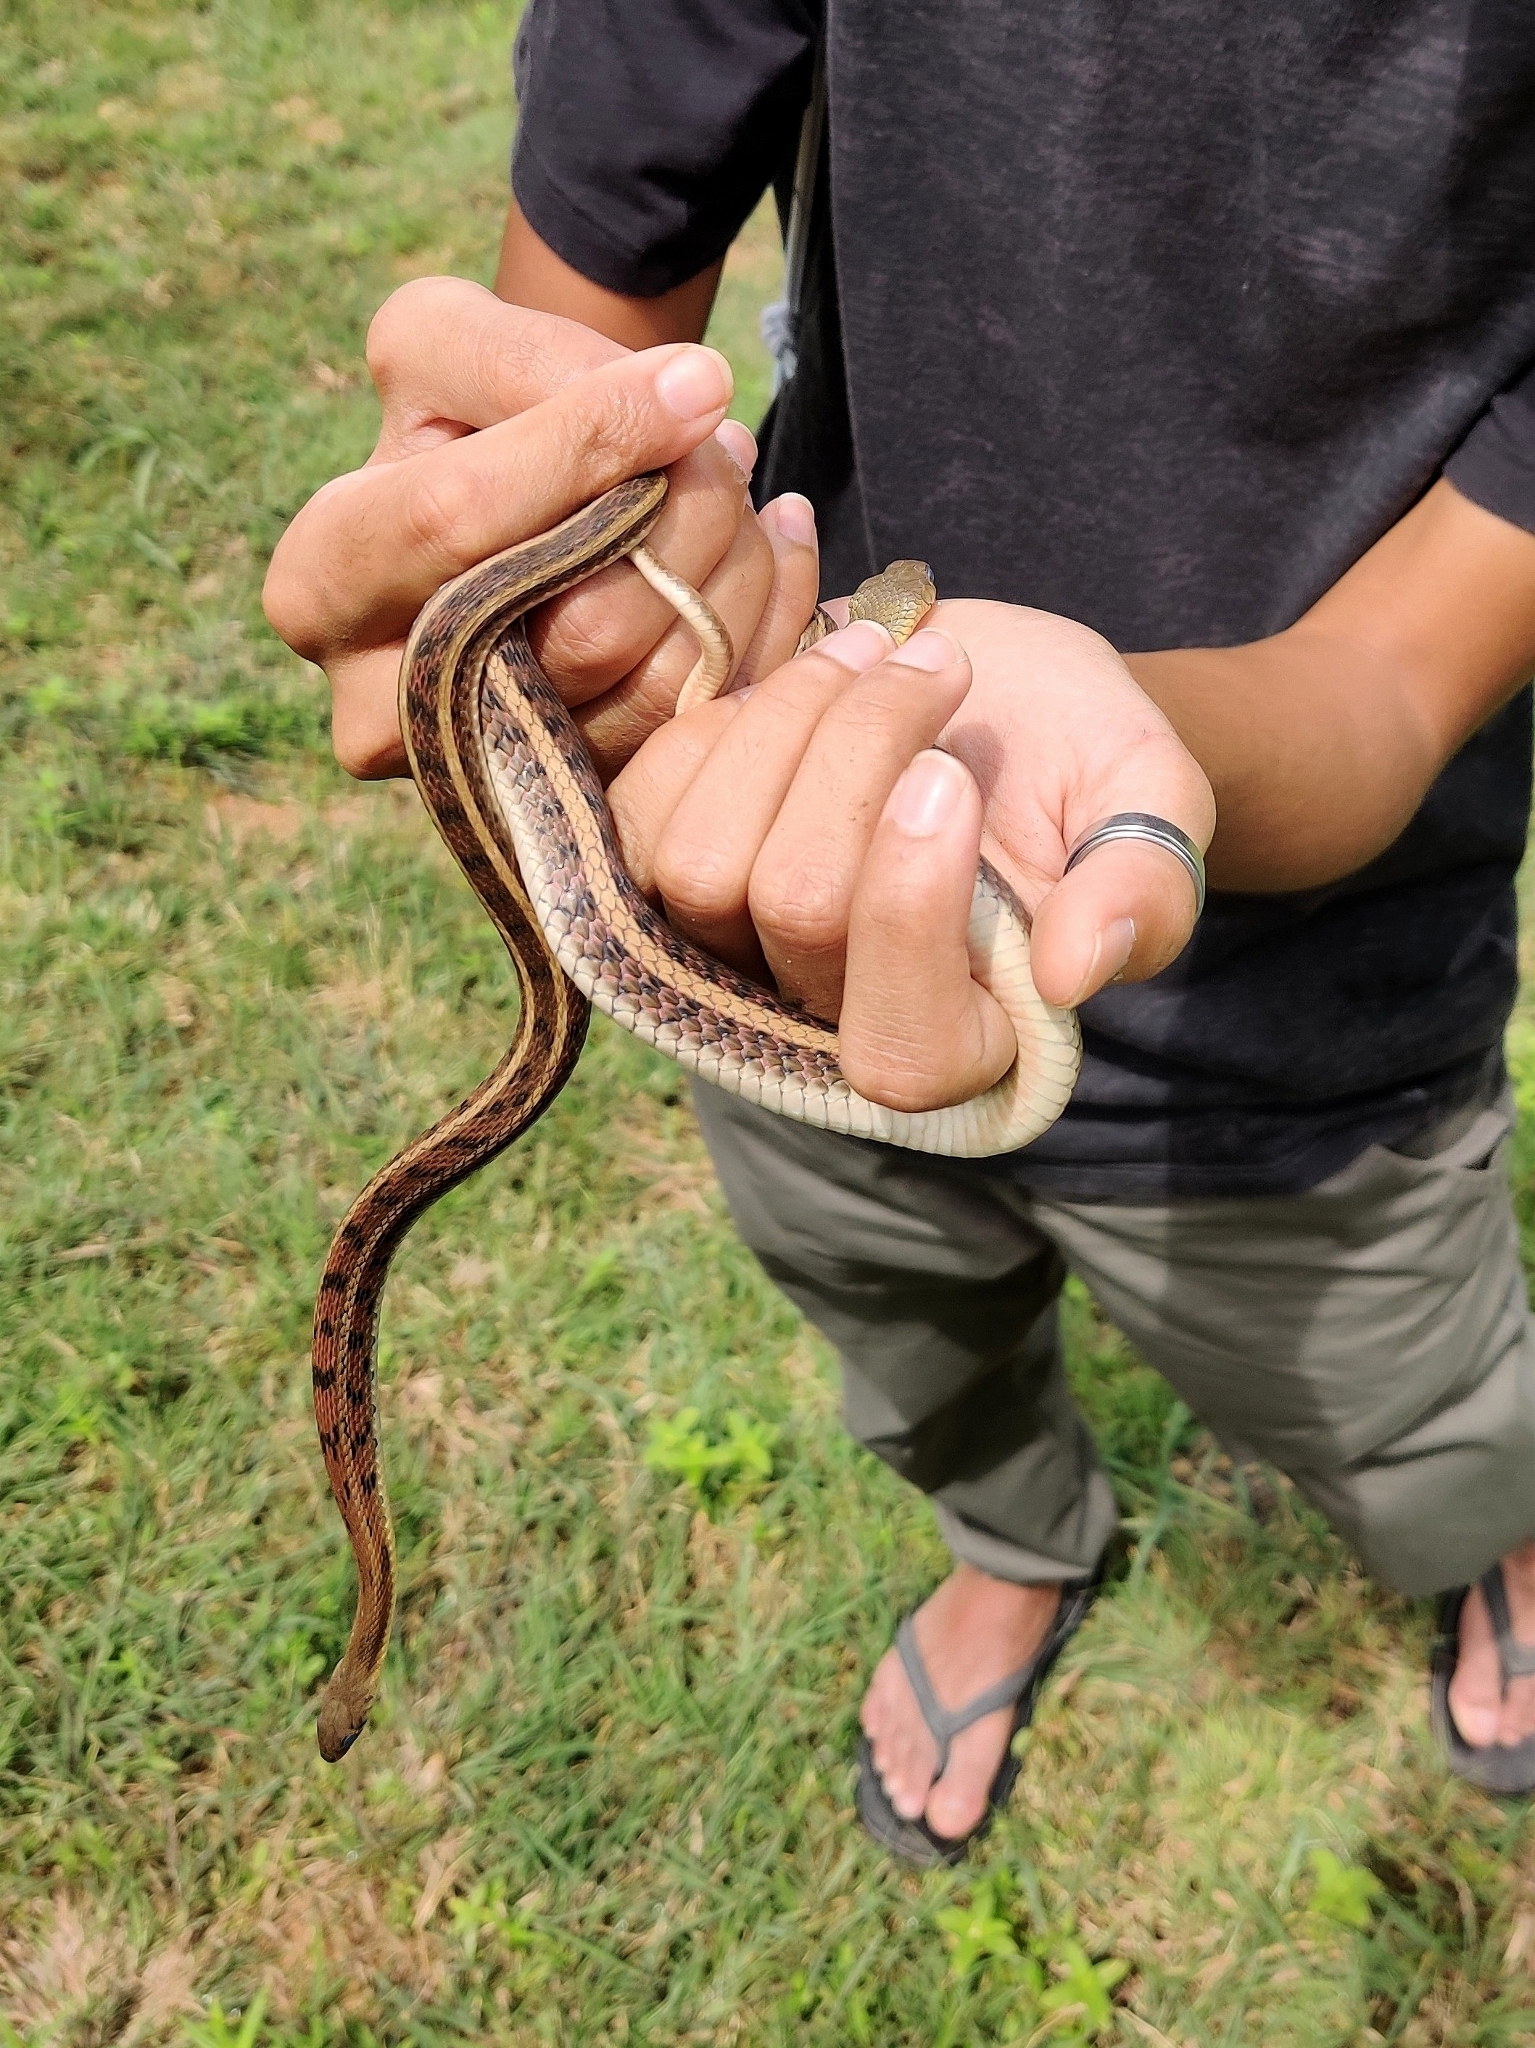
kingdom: Animalia
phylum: Chordata
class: Squamata
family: Colubridae
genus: Amphiesma
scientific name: Amphiesma stolatum
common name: Buff striped keelback
